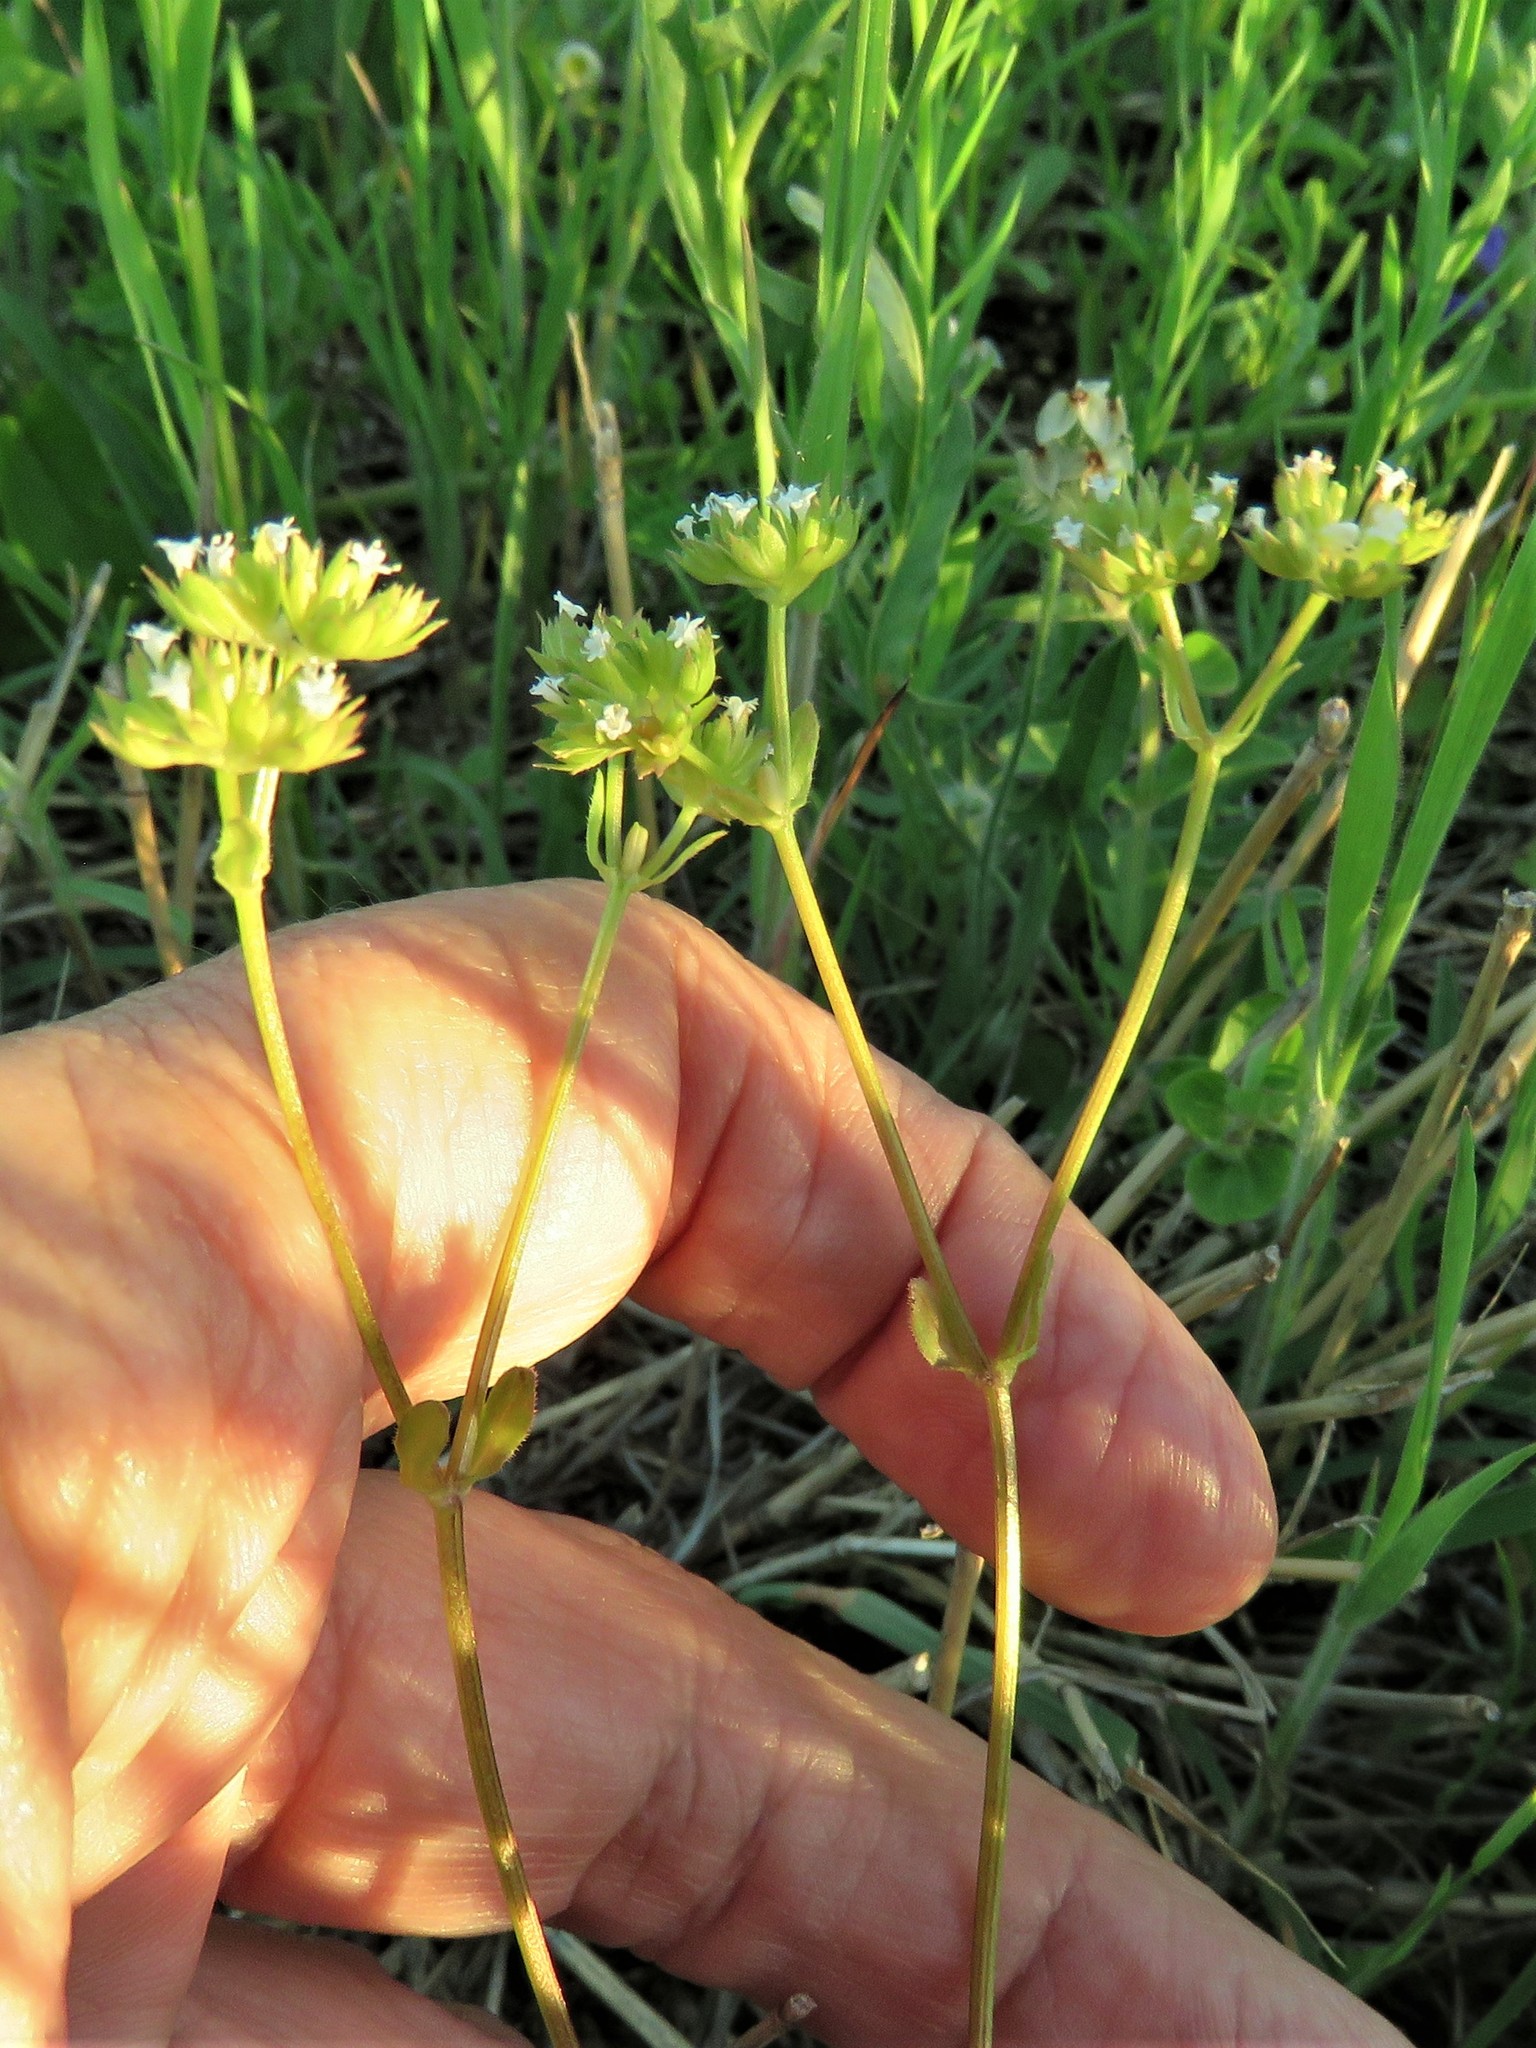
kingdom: Plantae
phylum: Tracheophyta
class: Magnoliopsida
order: Dipsacales
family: Caprifoliaceae
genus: Valerianella
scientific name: Valerianella radiata
